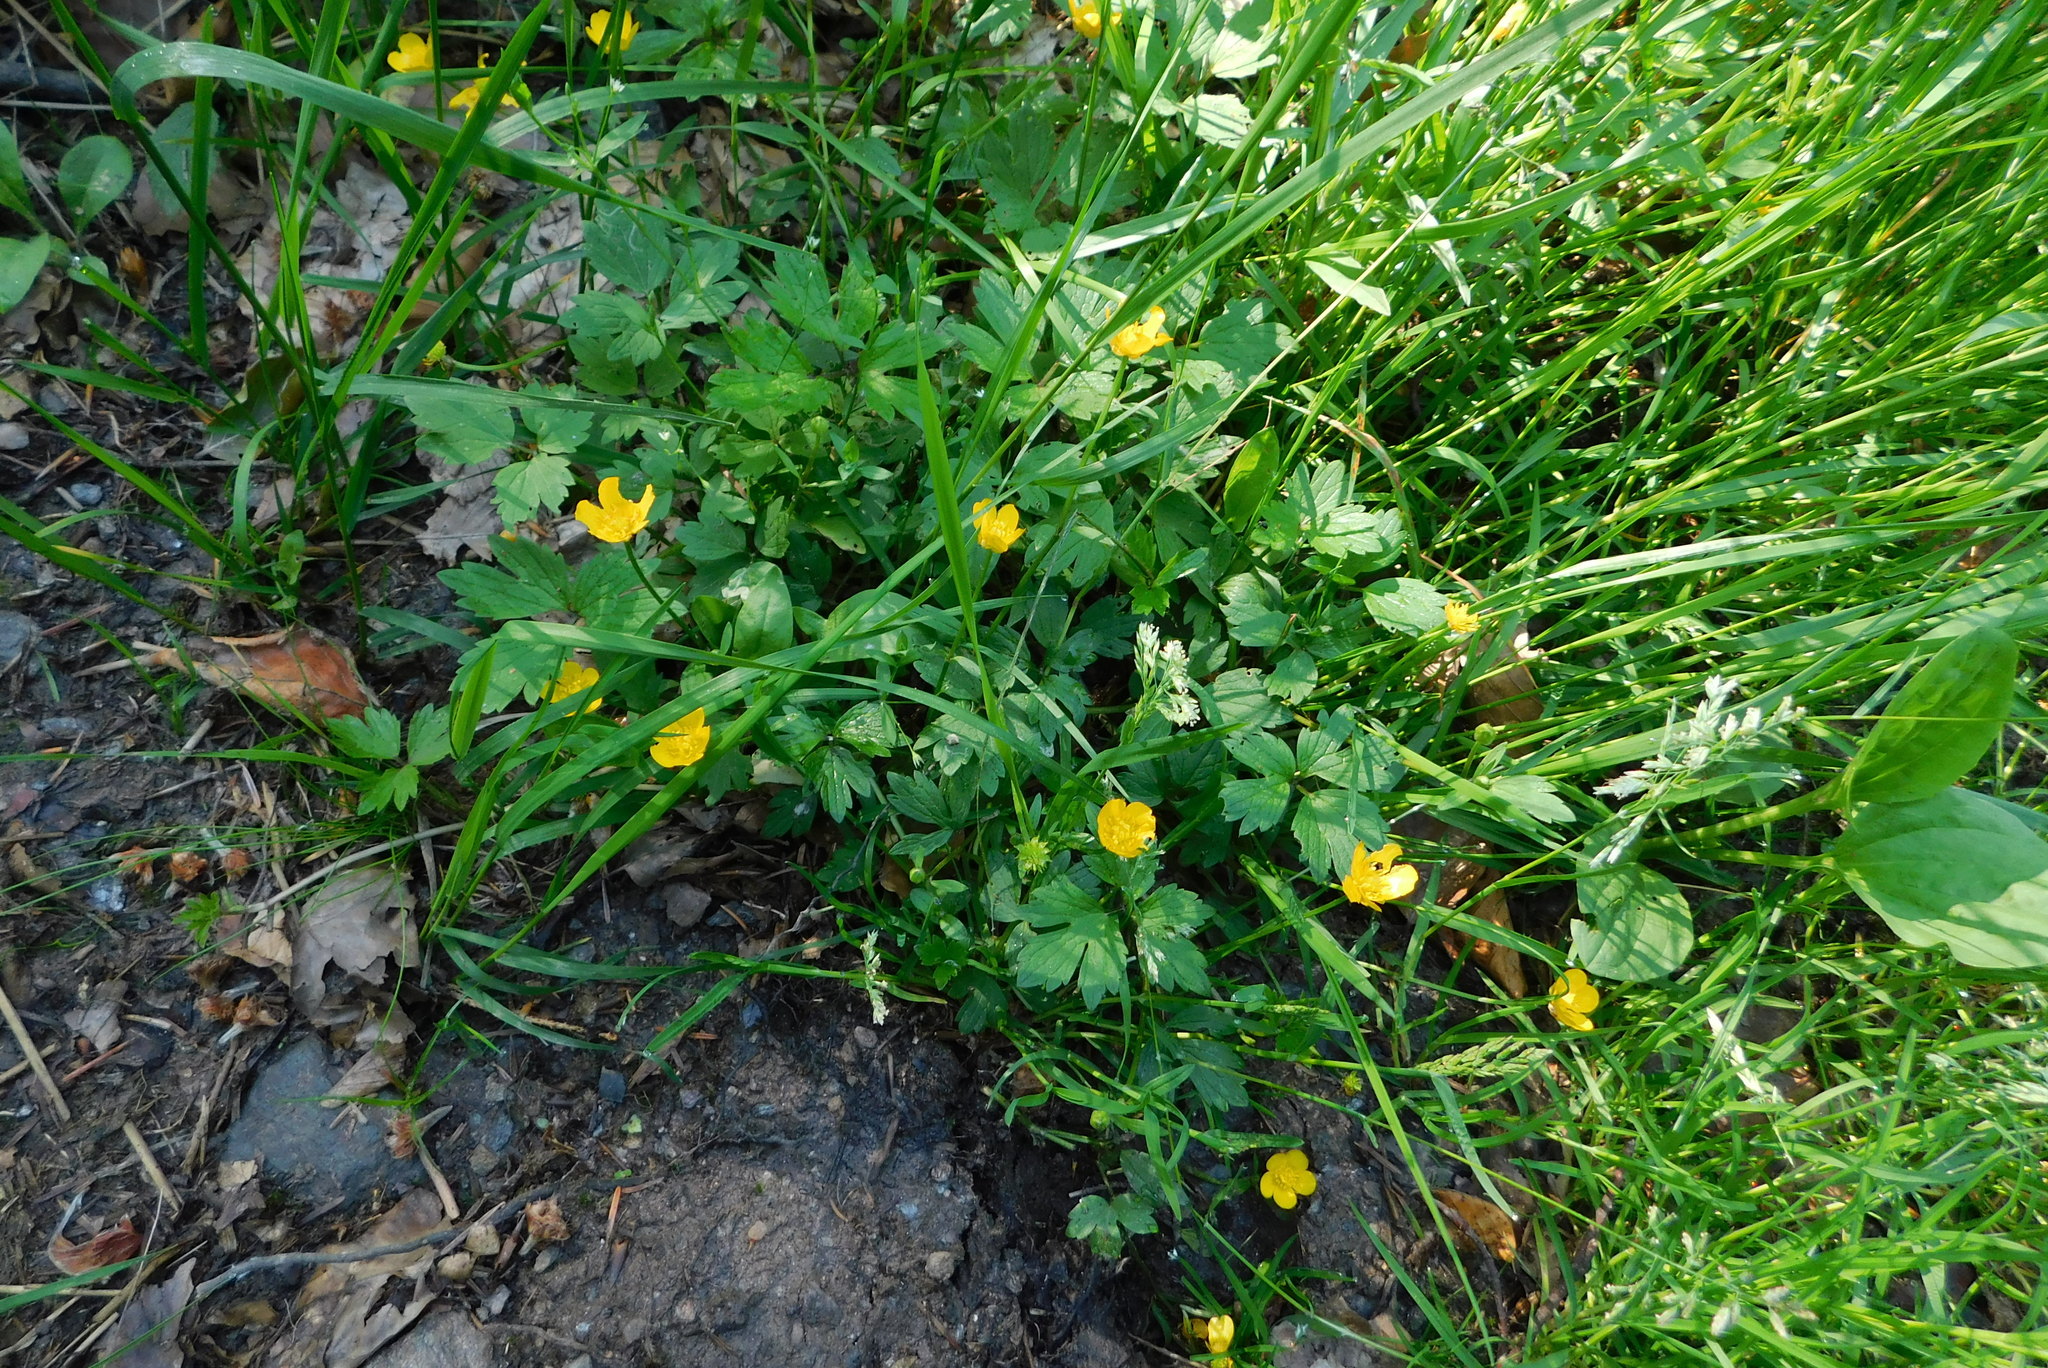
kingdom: Plantae
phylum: Tracheophyta
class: Magnoliopsida
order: Ranunculales
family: Ranunculaceae
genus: Ranunculus
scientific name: Ranunculus repens
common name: Creeping buttercup
